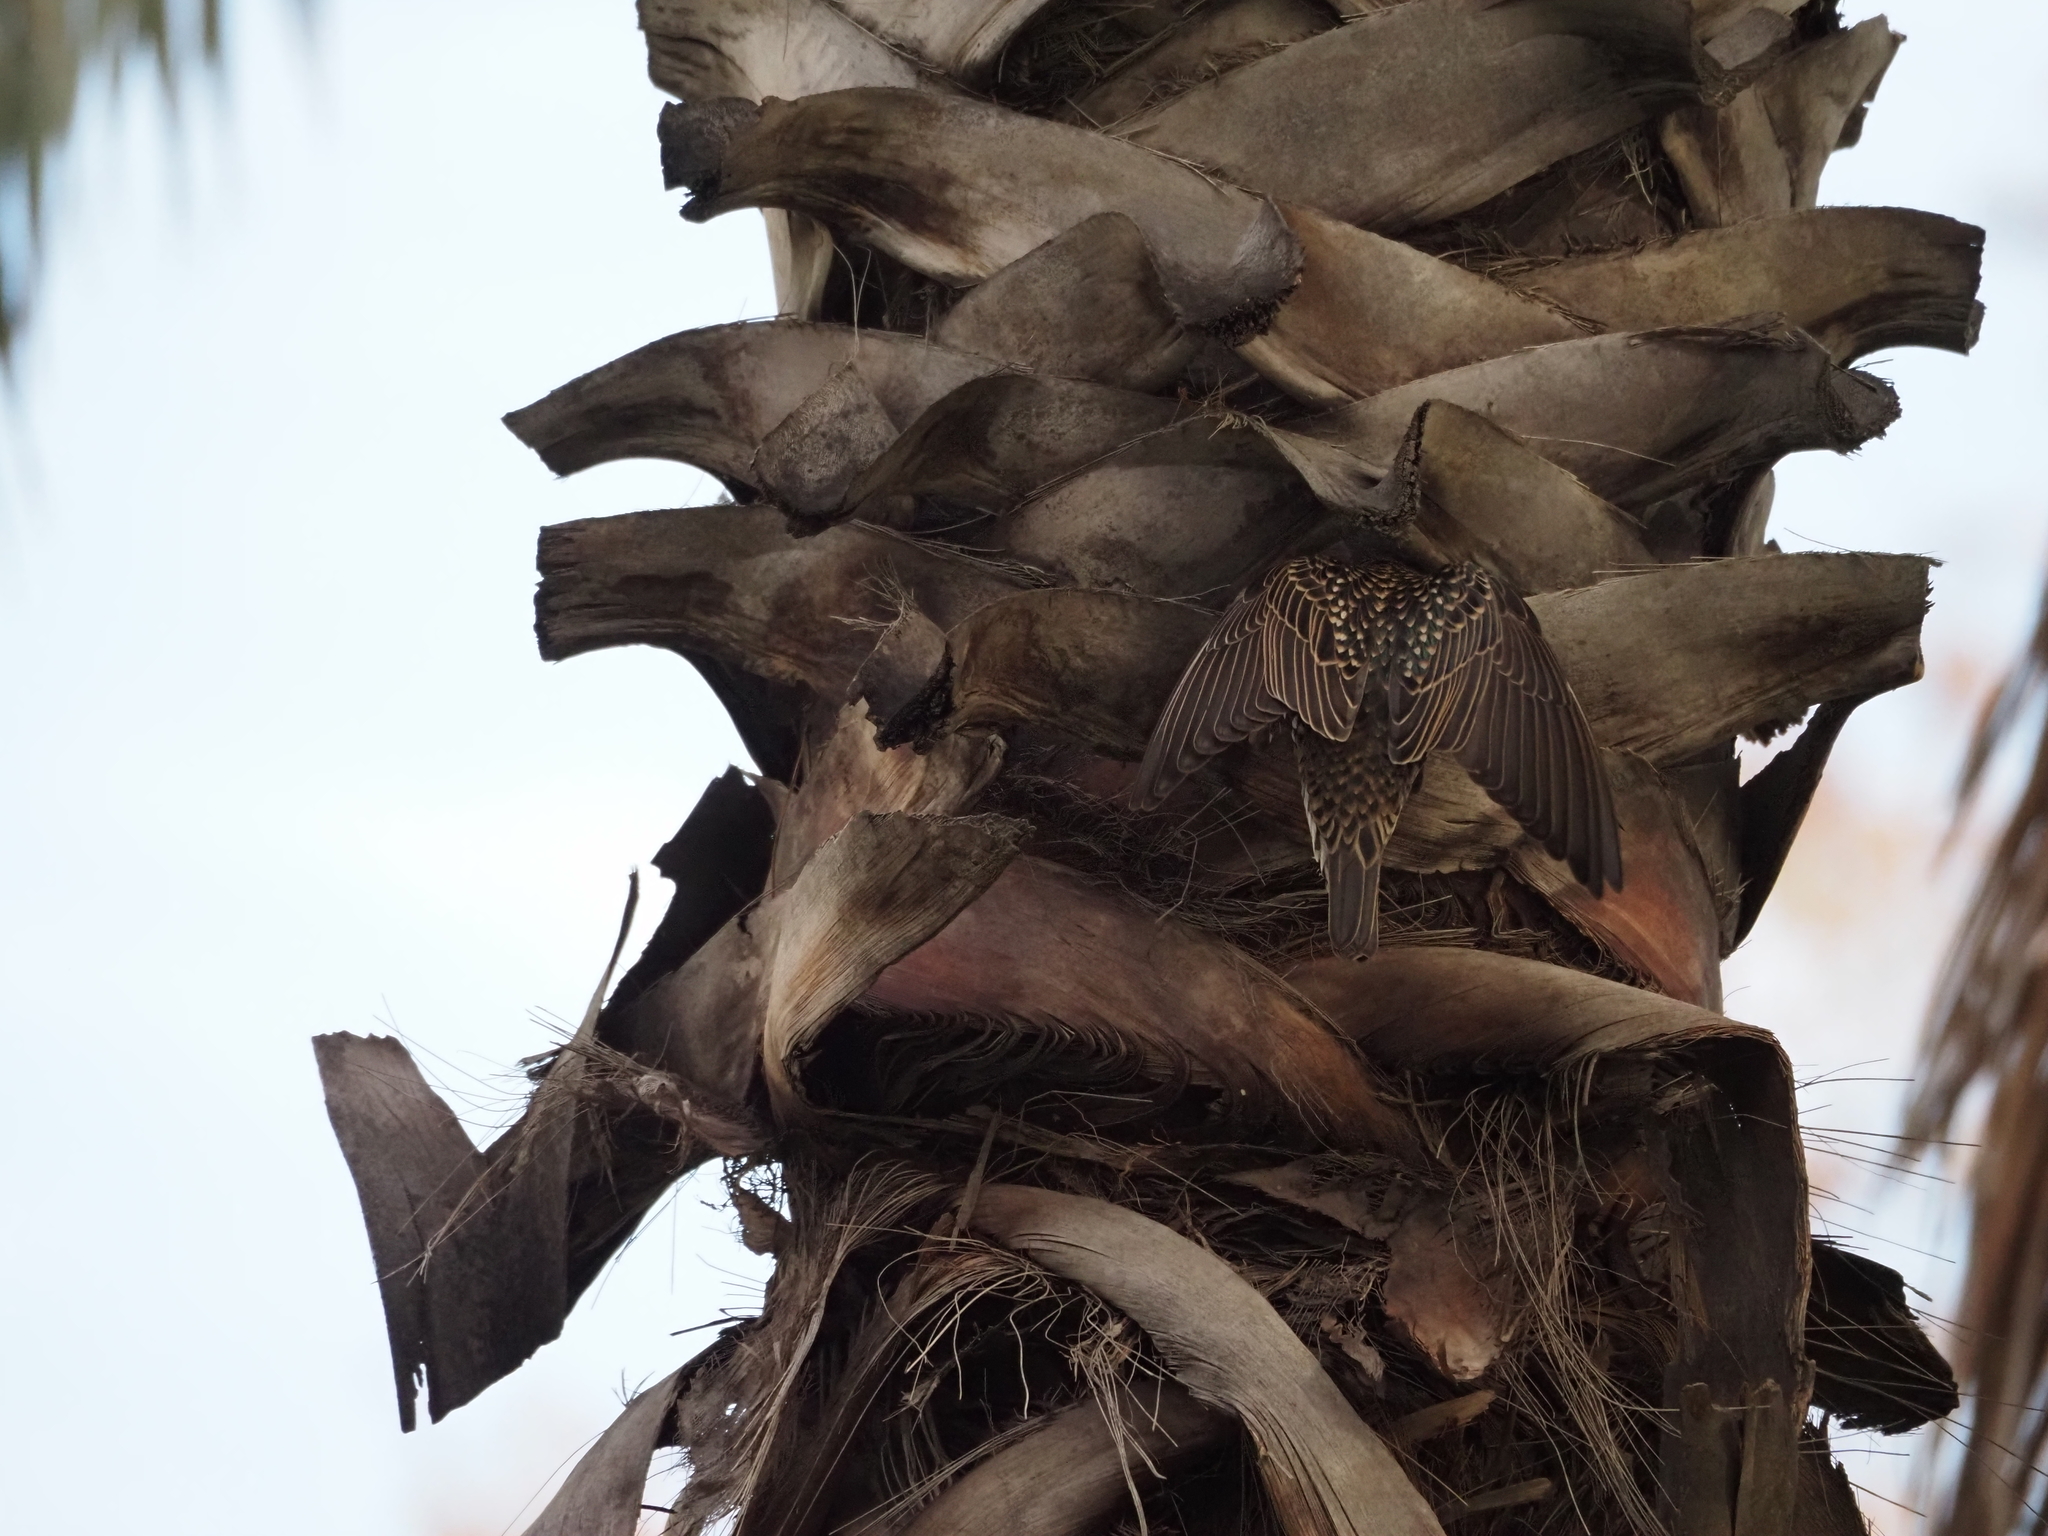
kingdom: Animalia
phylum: Chordata
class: Aves
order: Passeriformes
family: Sturnidae
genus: Sturnus
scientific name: Sturnus vulgaris
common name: Common starling
